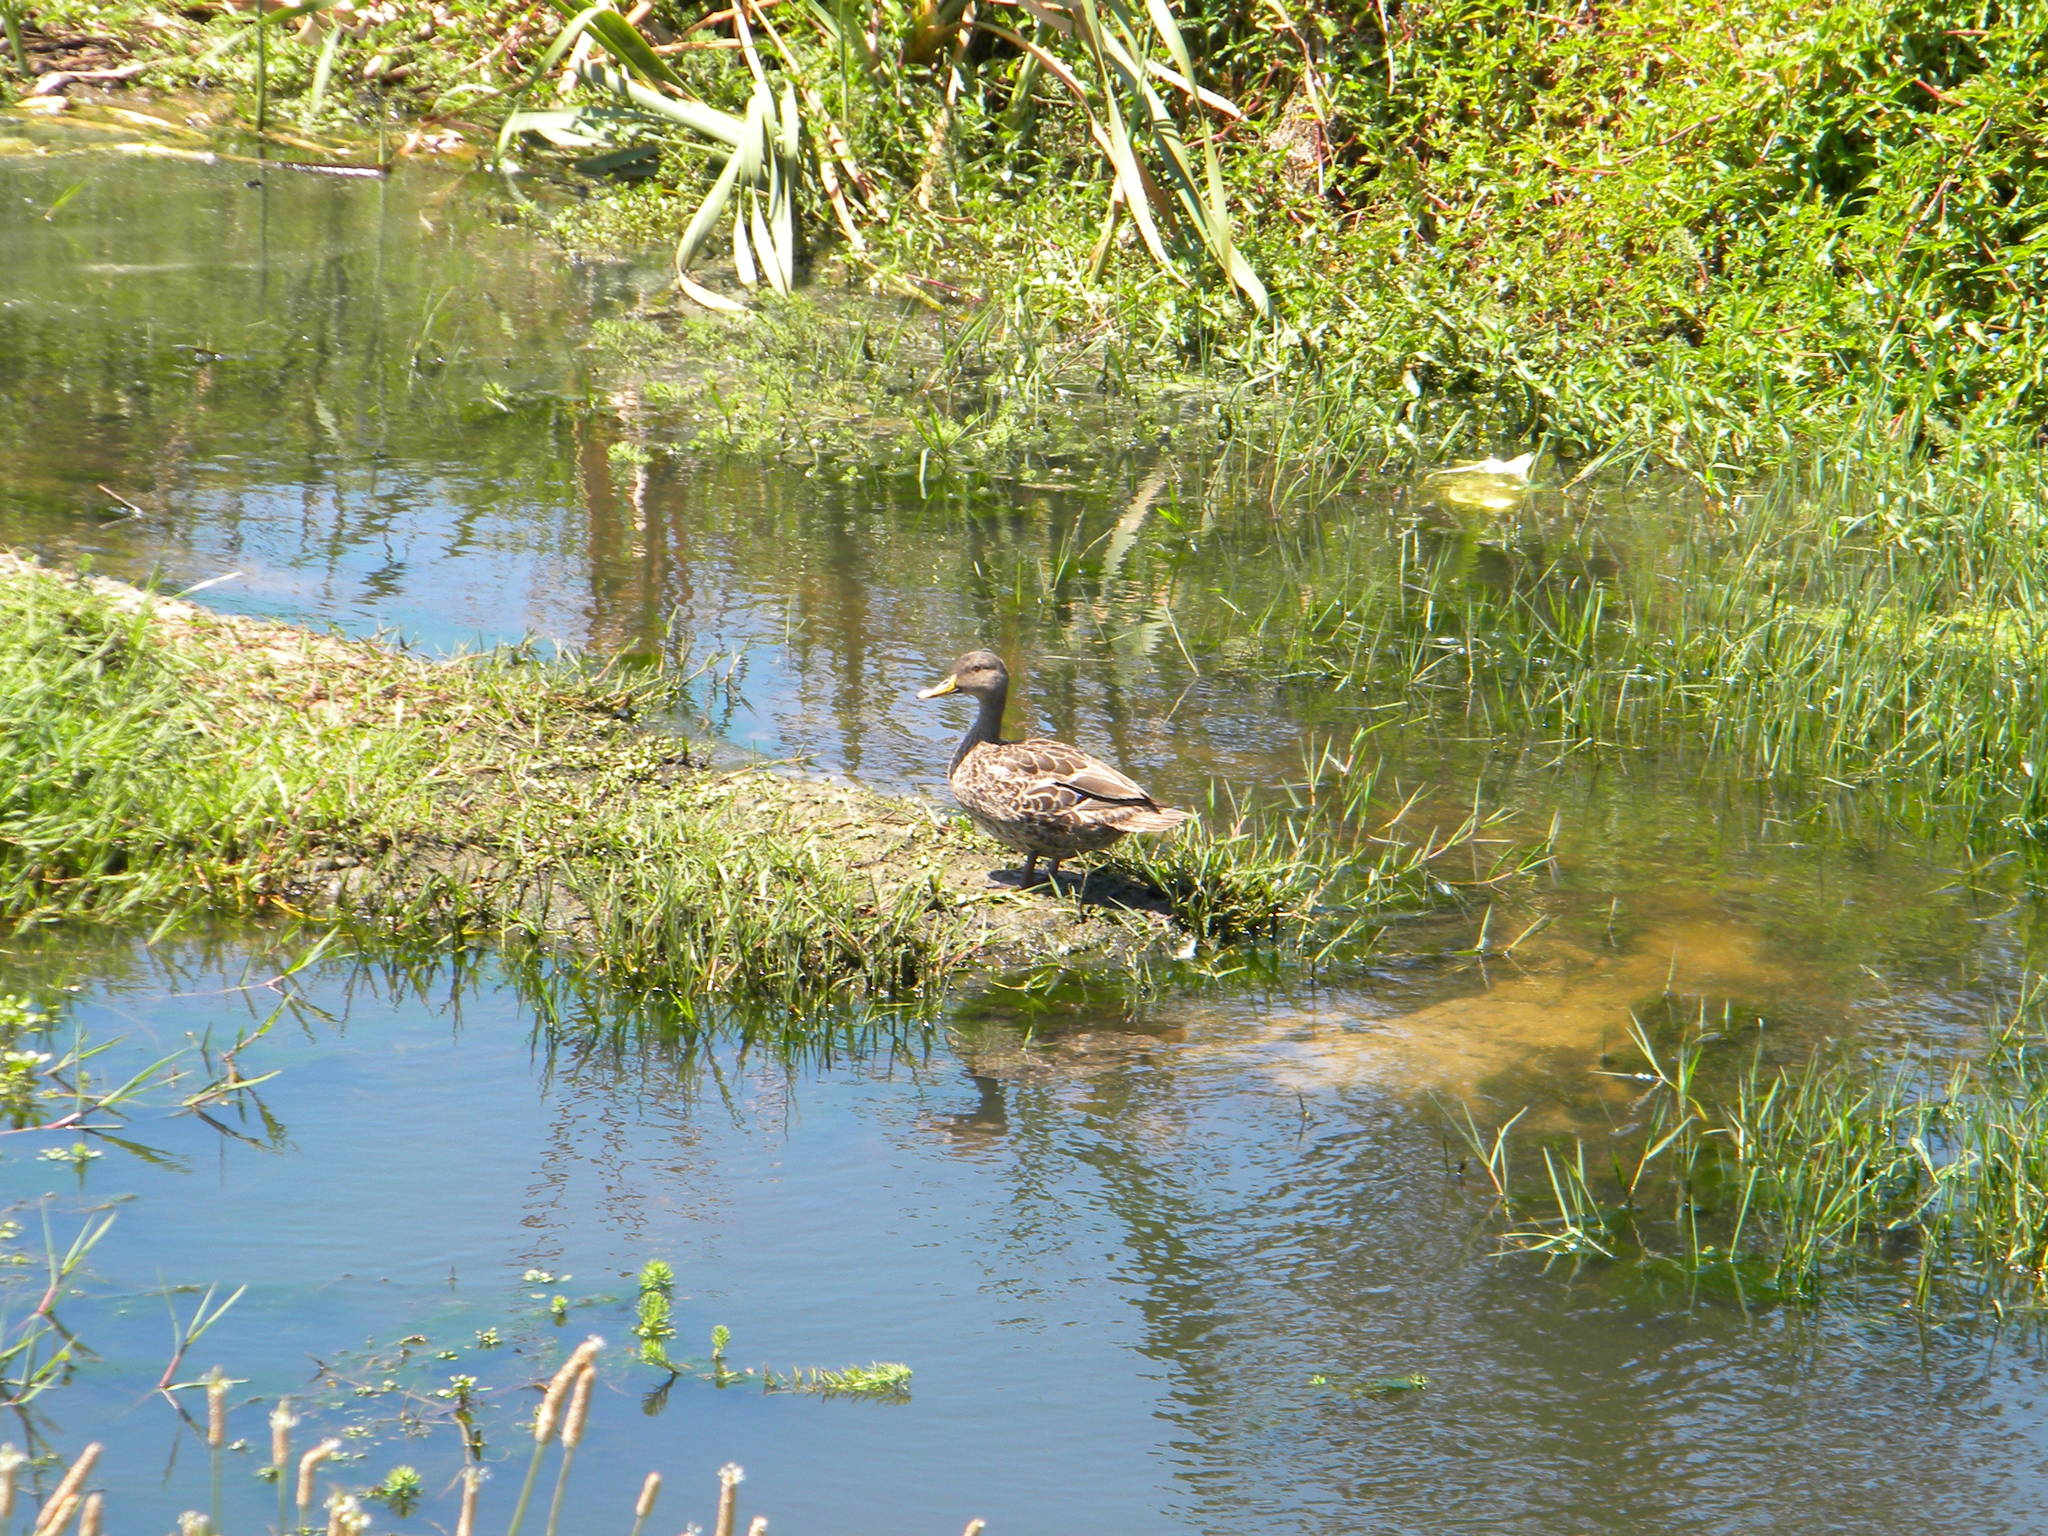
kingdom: Animalia
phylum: Chordata
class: Aves
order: Anseriformes
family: Anatidae
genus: Anas
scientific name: Anas undulata
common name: Yellow-billed duck
